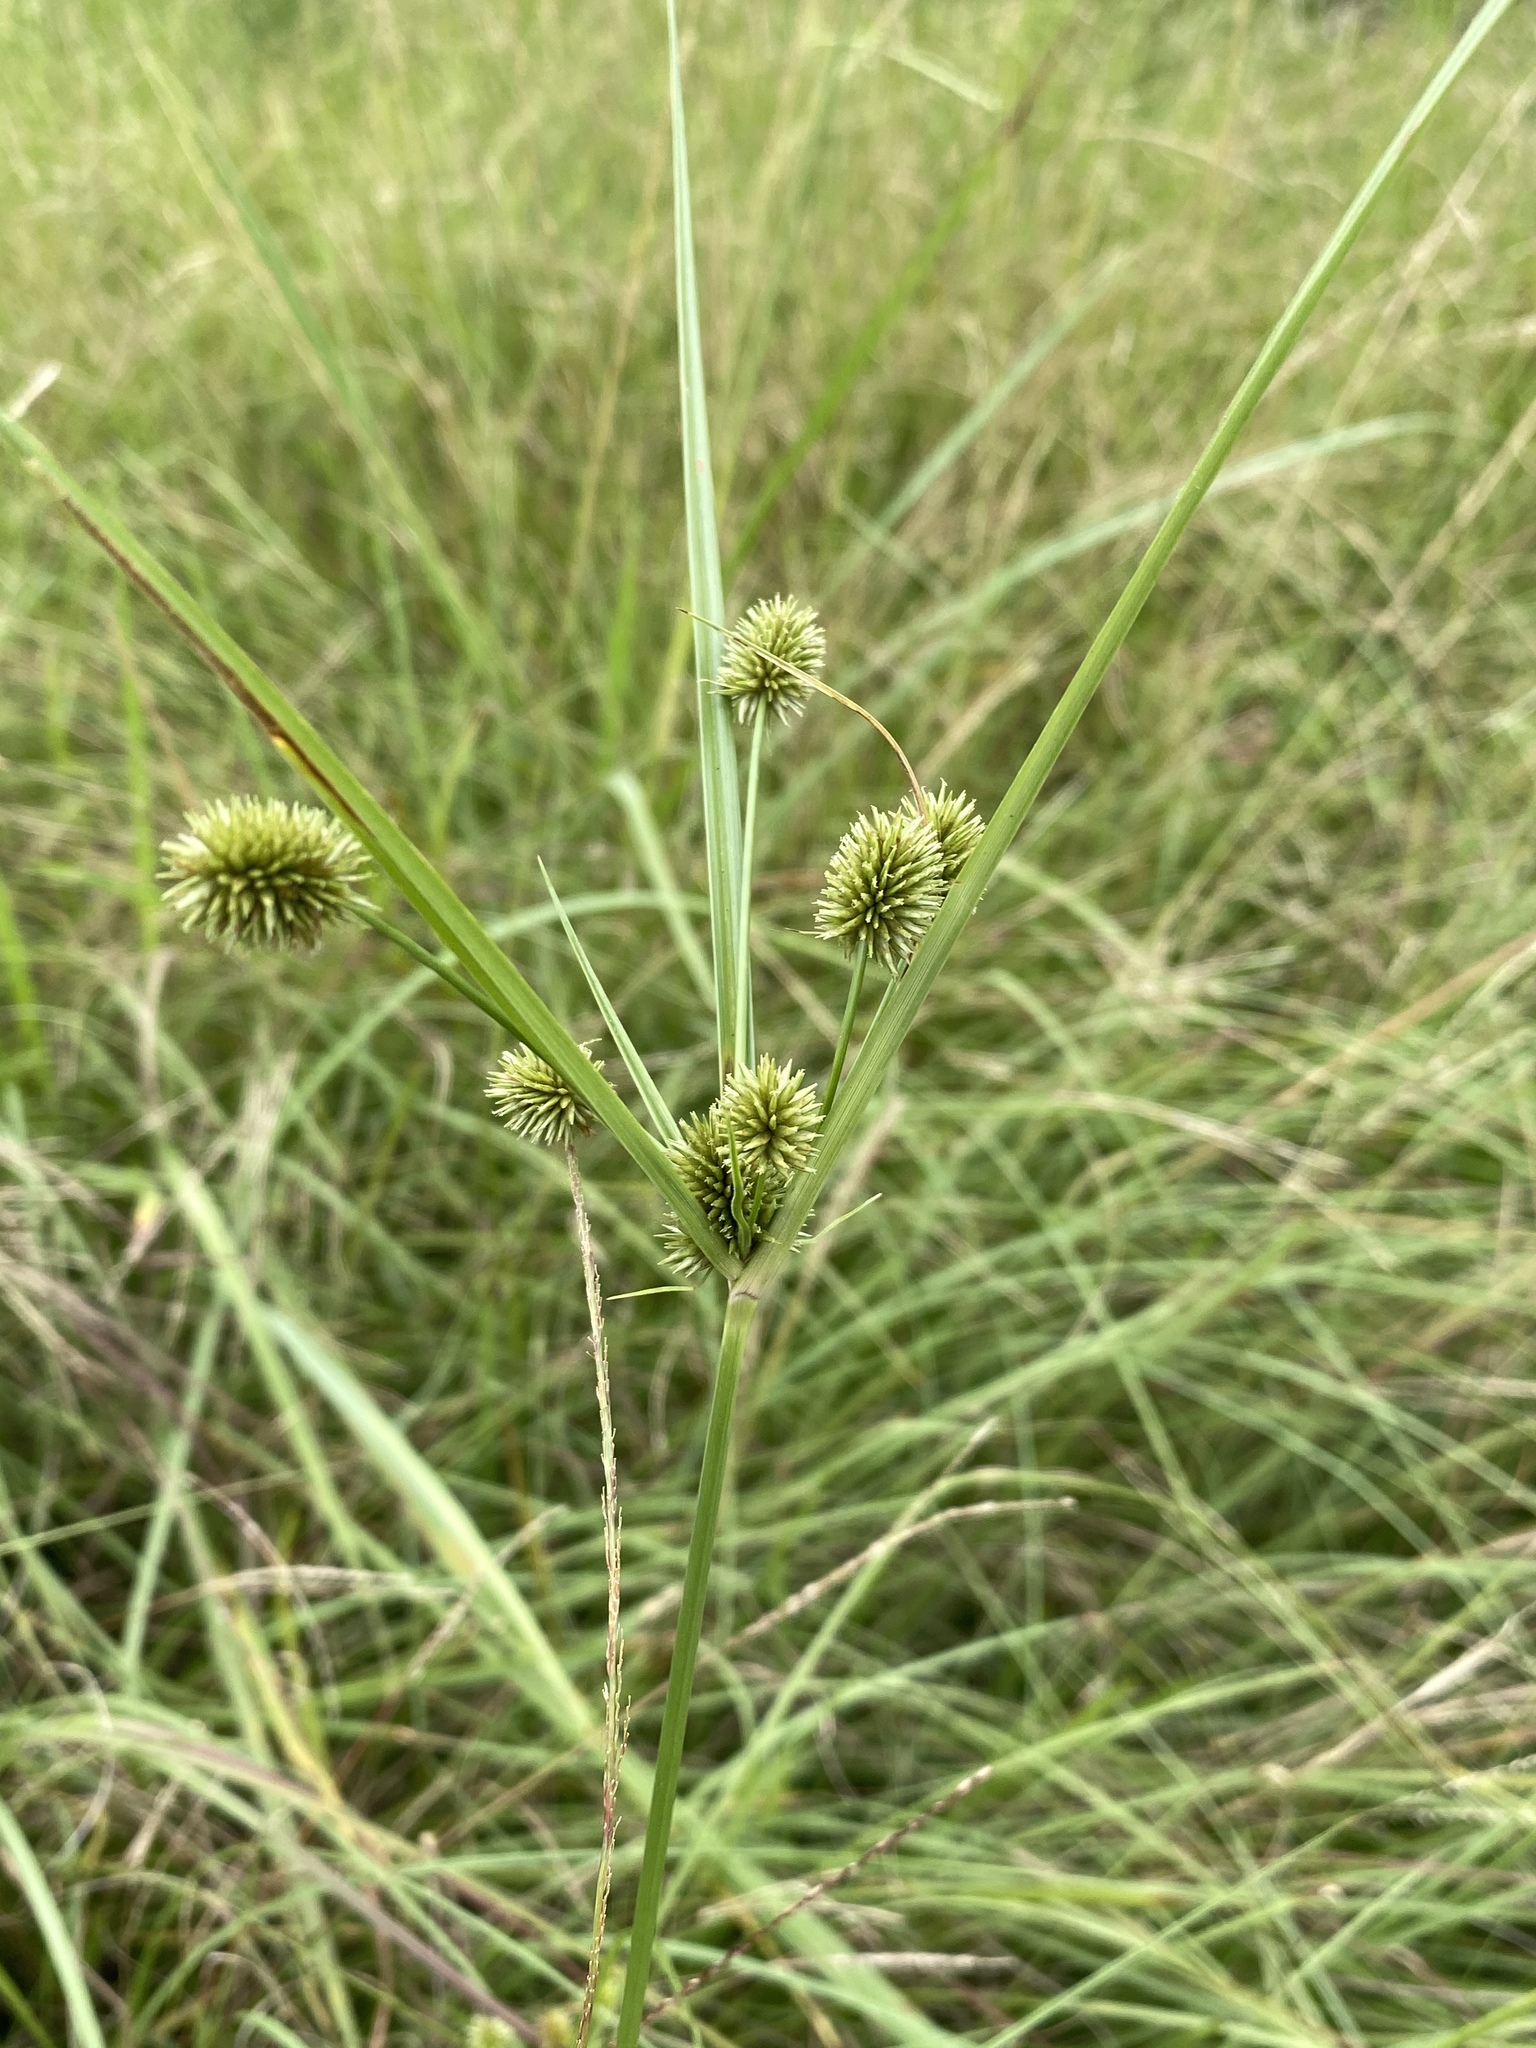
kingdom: Plantae
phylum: Tracheophyta
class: Liliopsida
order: Poales
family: Cyperaceae
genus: Cyperus
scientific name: Cyperus echinatus
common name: Teasel sedge
